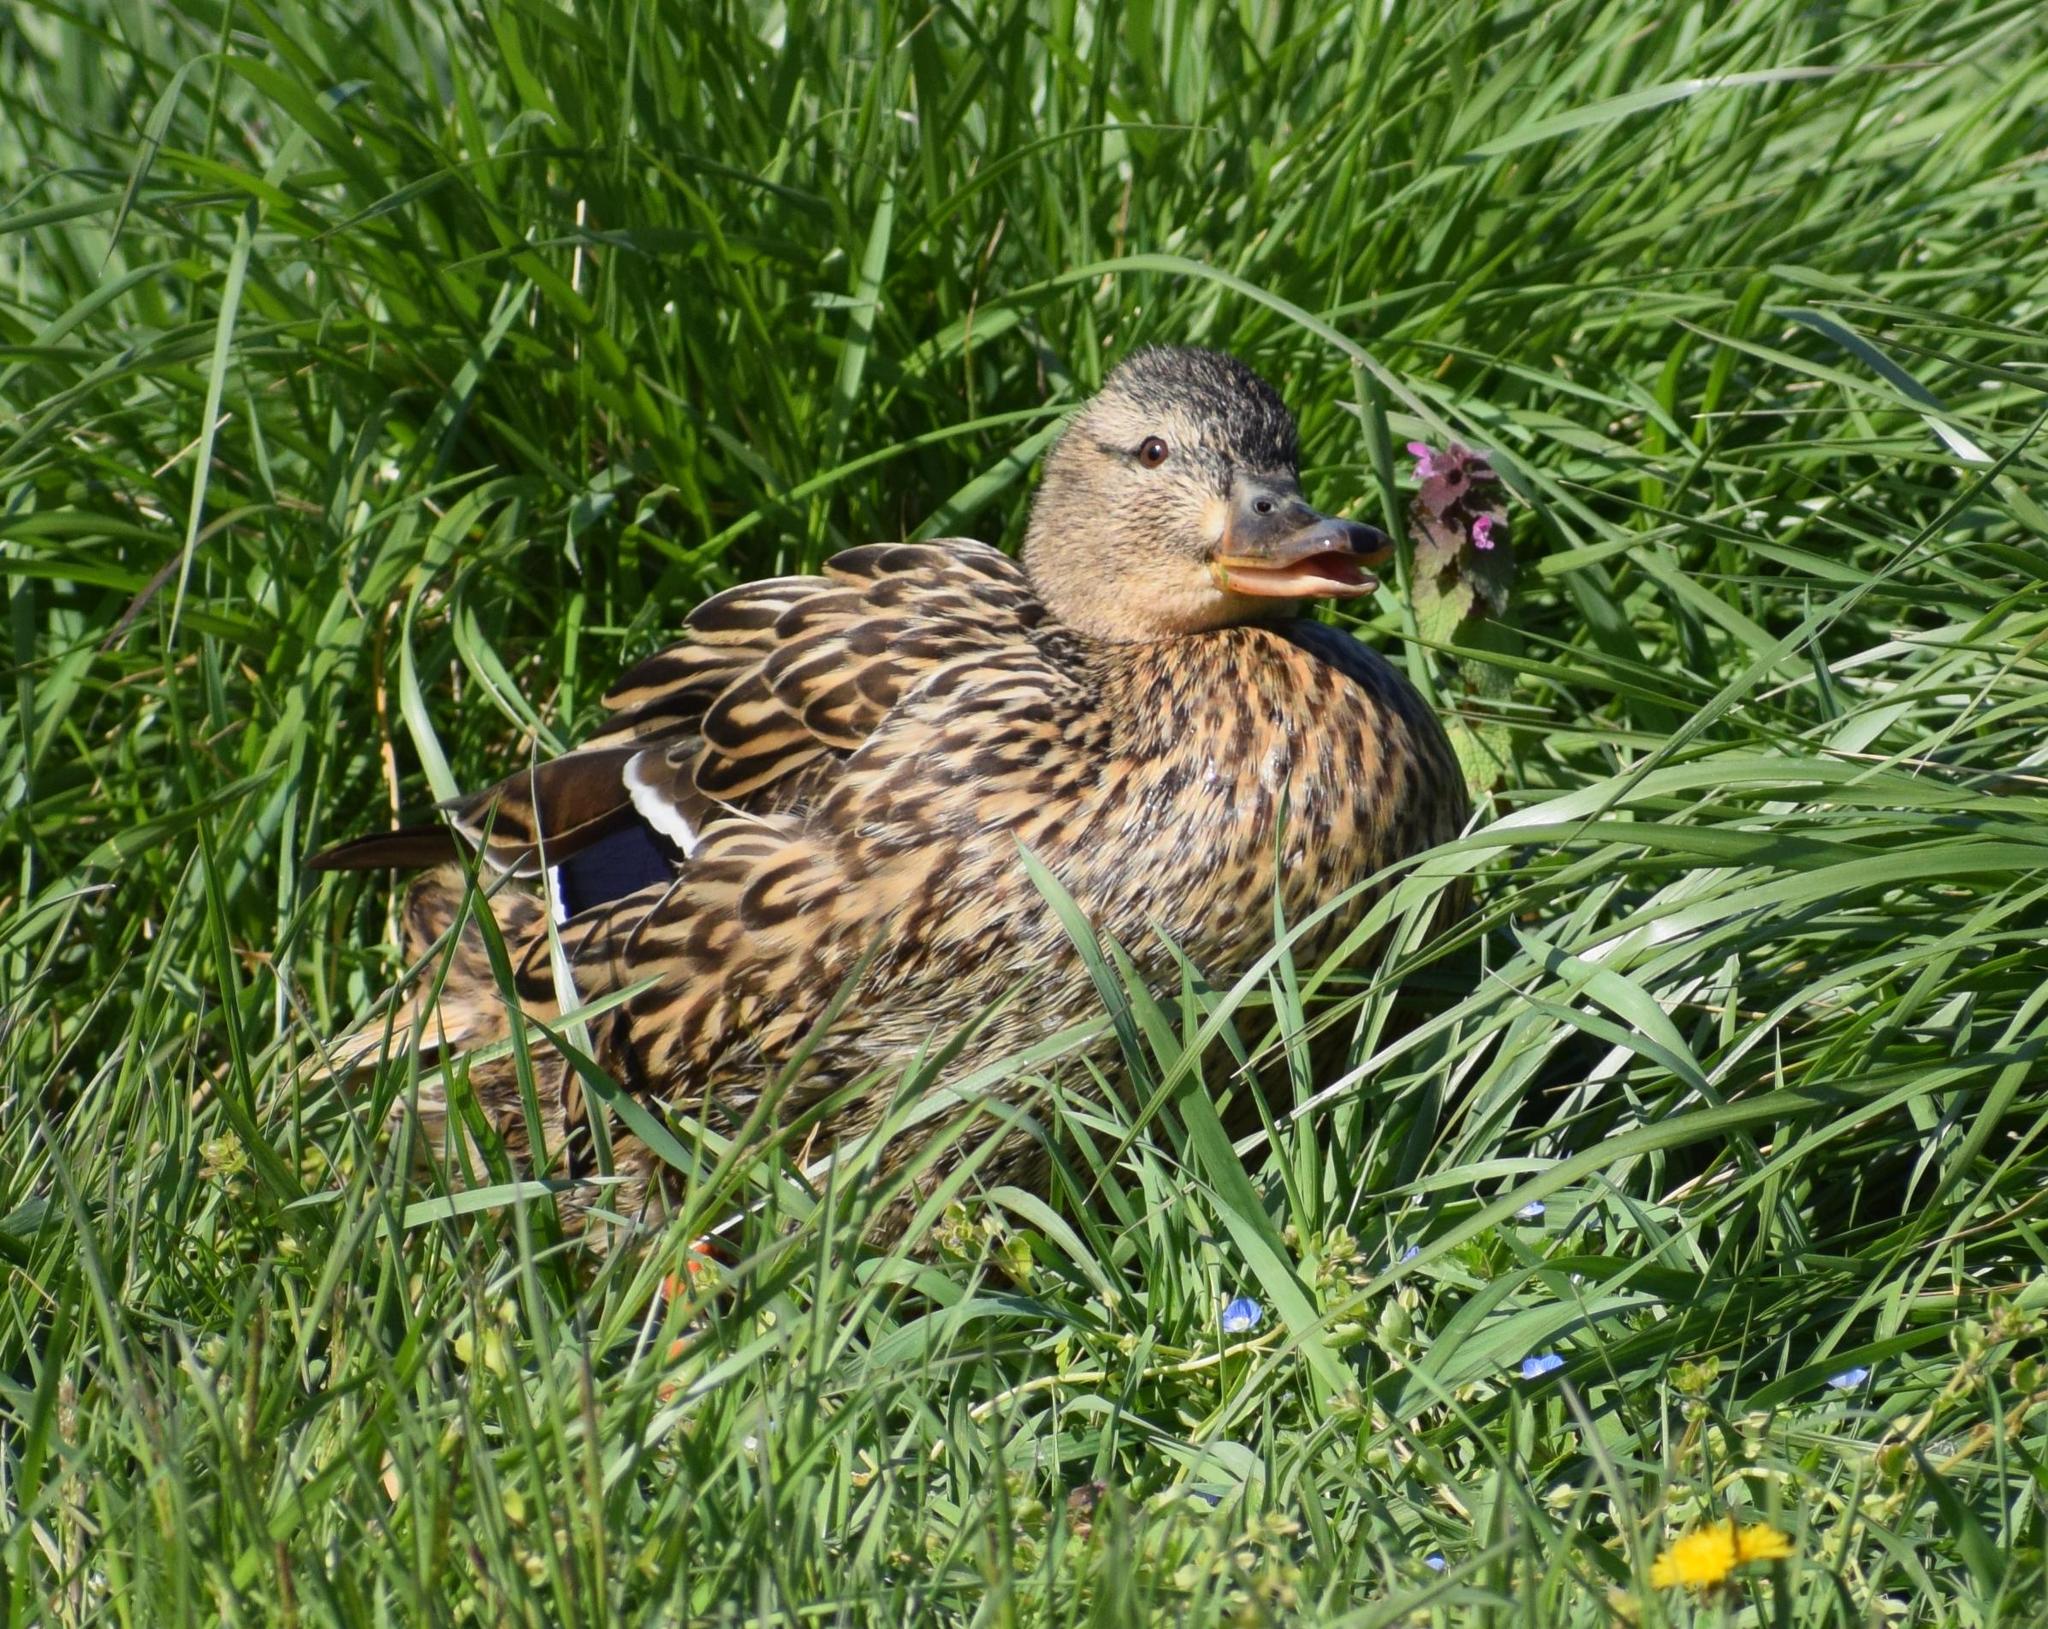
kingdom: Animalia
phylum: Chordata
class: Aves
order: Anseriformes
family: Anatidae
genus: Anas
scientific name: Anas platyrhynchos
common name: Mallard
